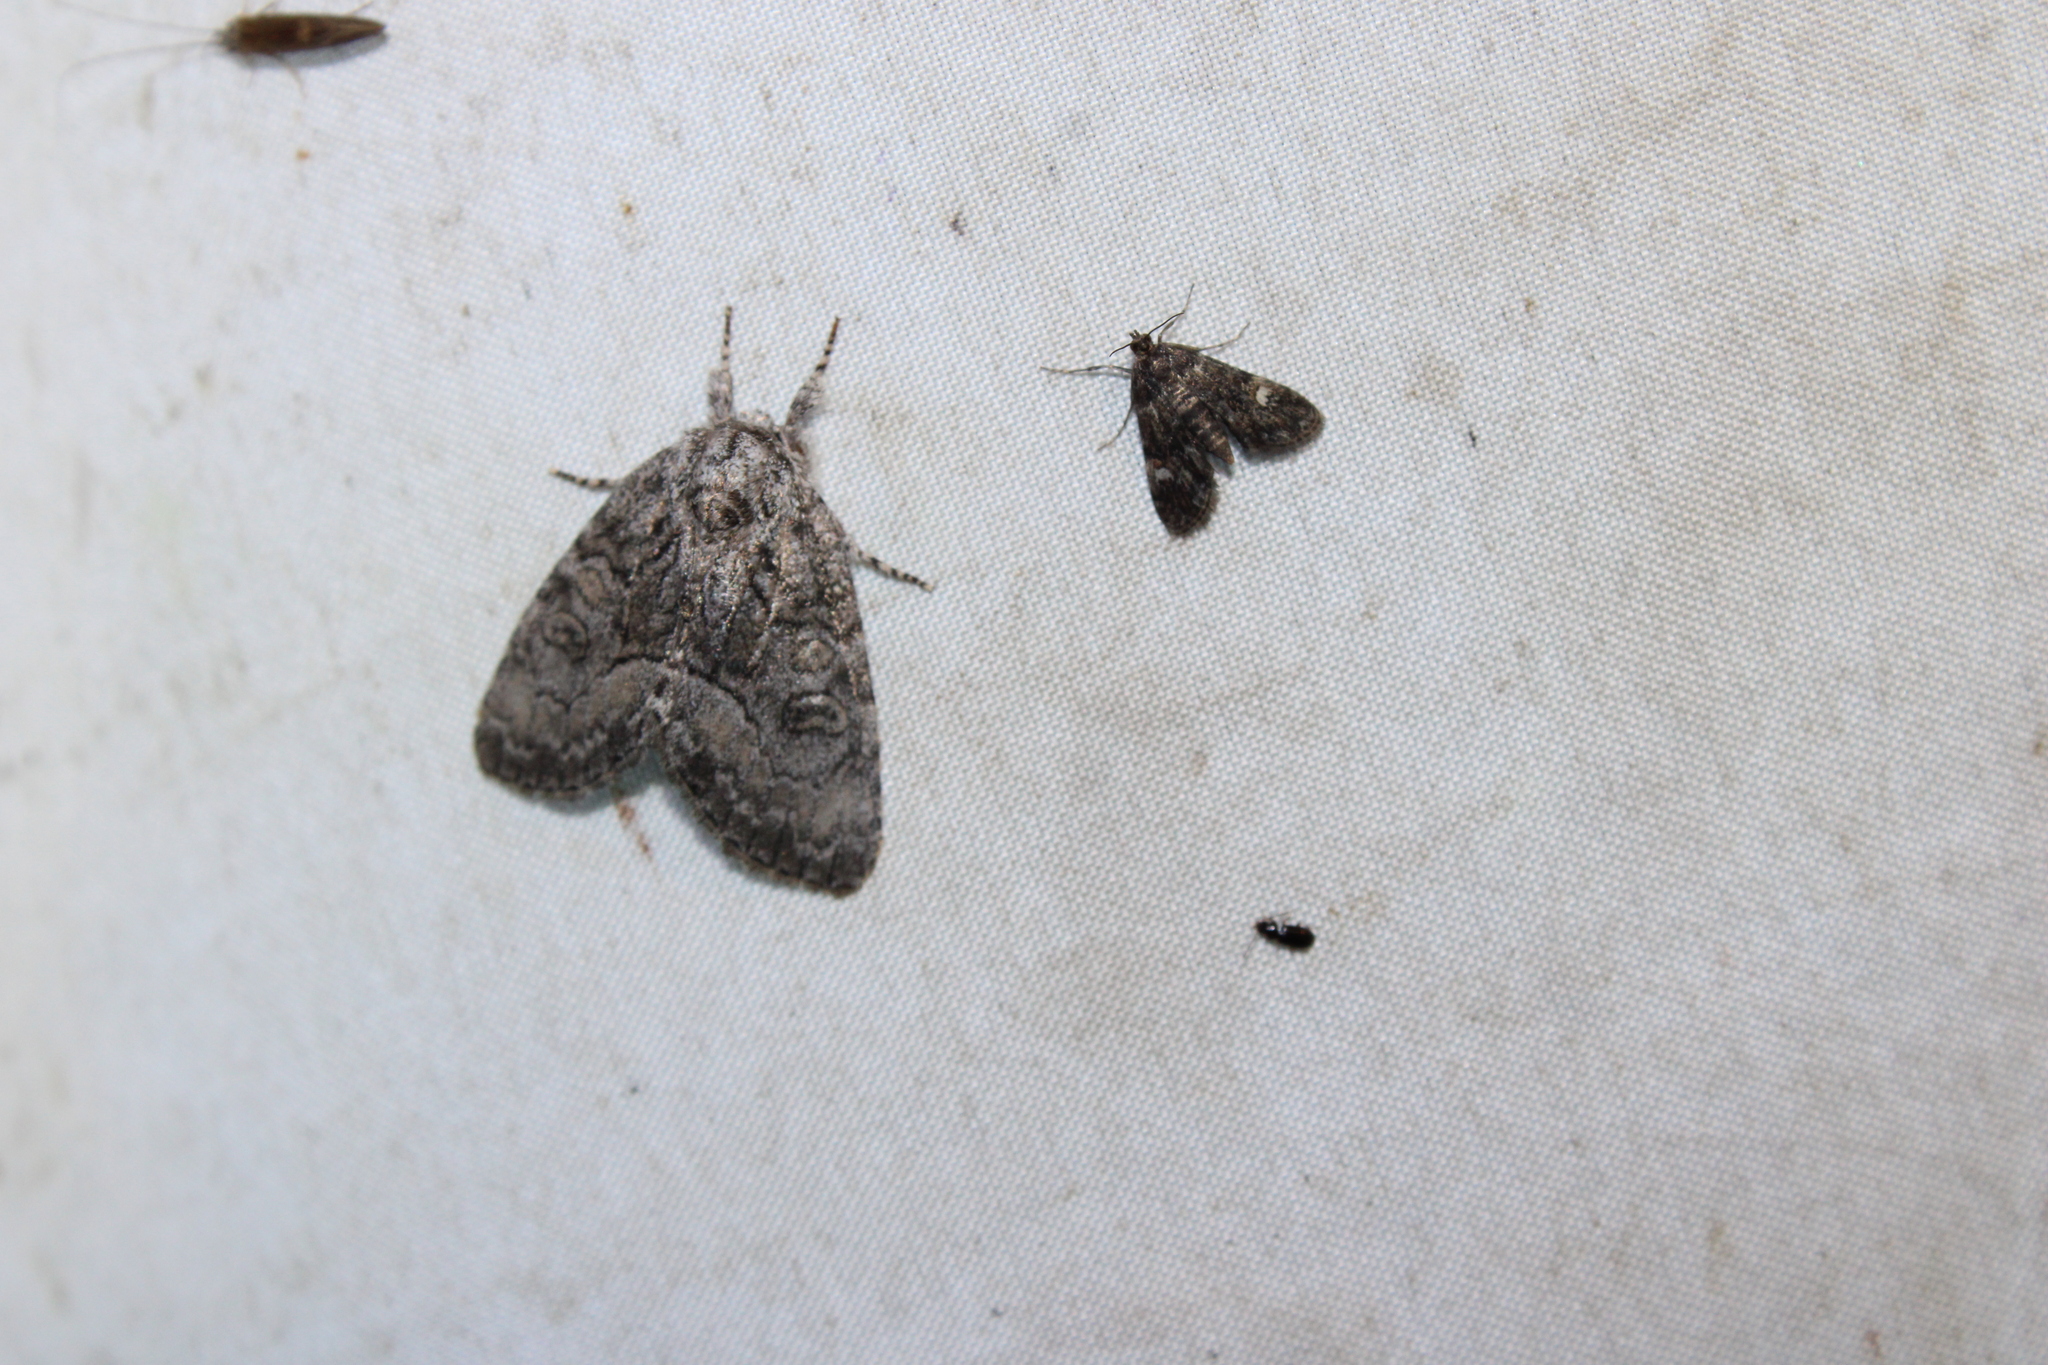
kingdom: Animalia
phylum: Arthropoda
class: Insecta
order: Lepidoptera
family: Noctuidae
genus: Raphia
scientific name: Raphia frater
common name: Brother
